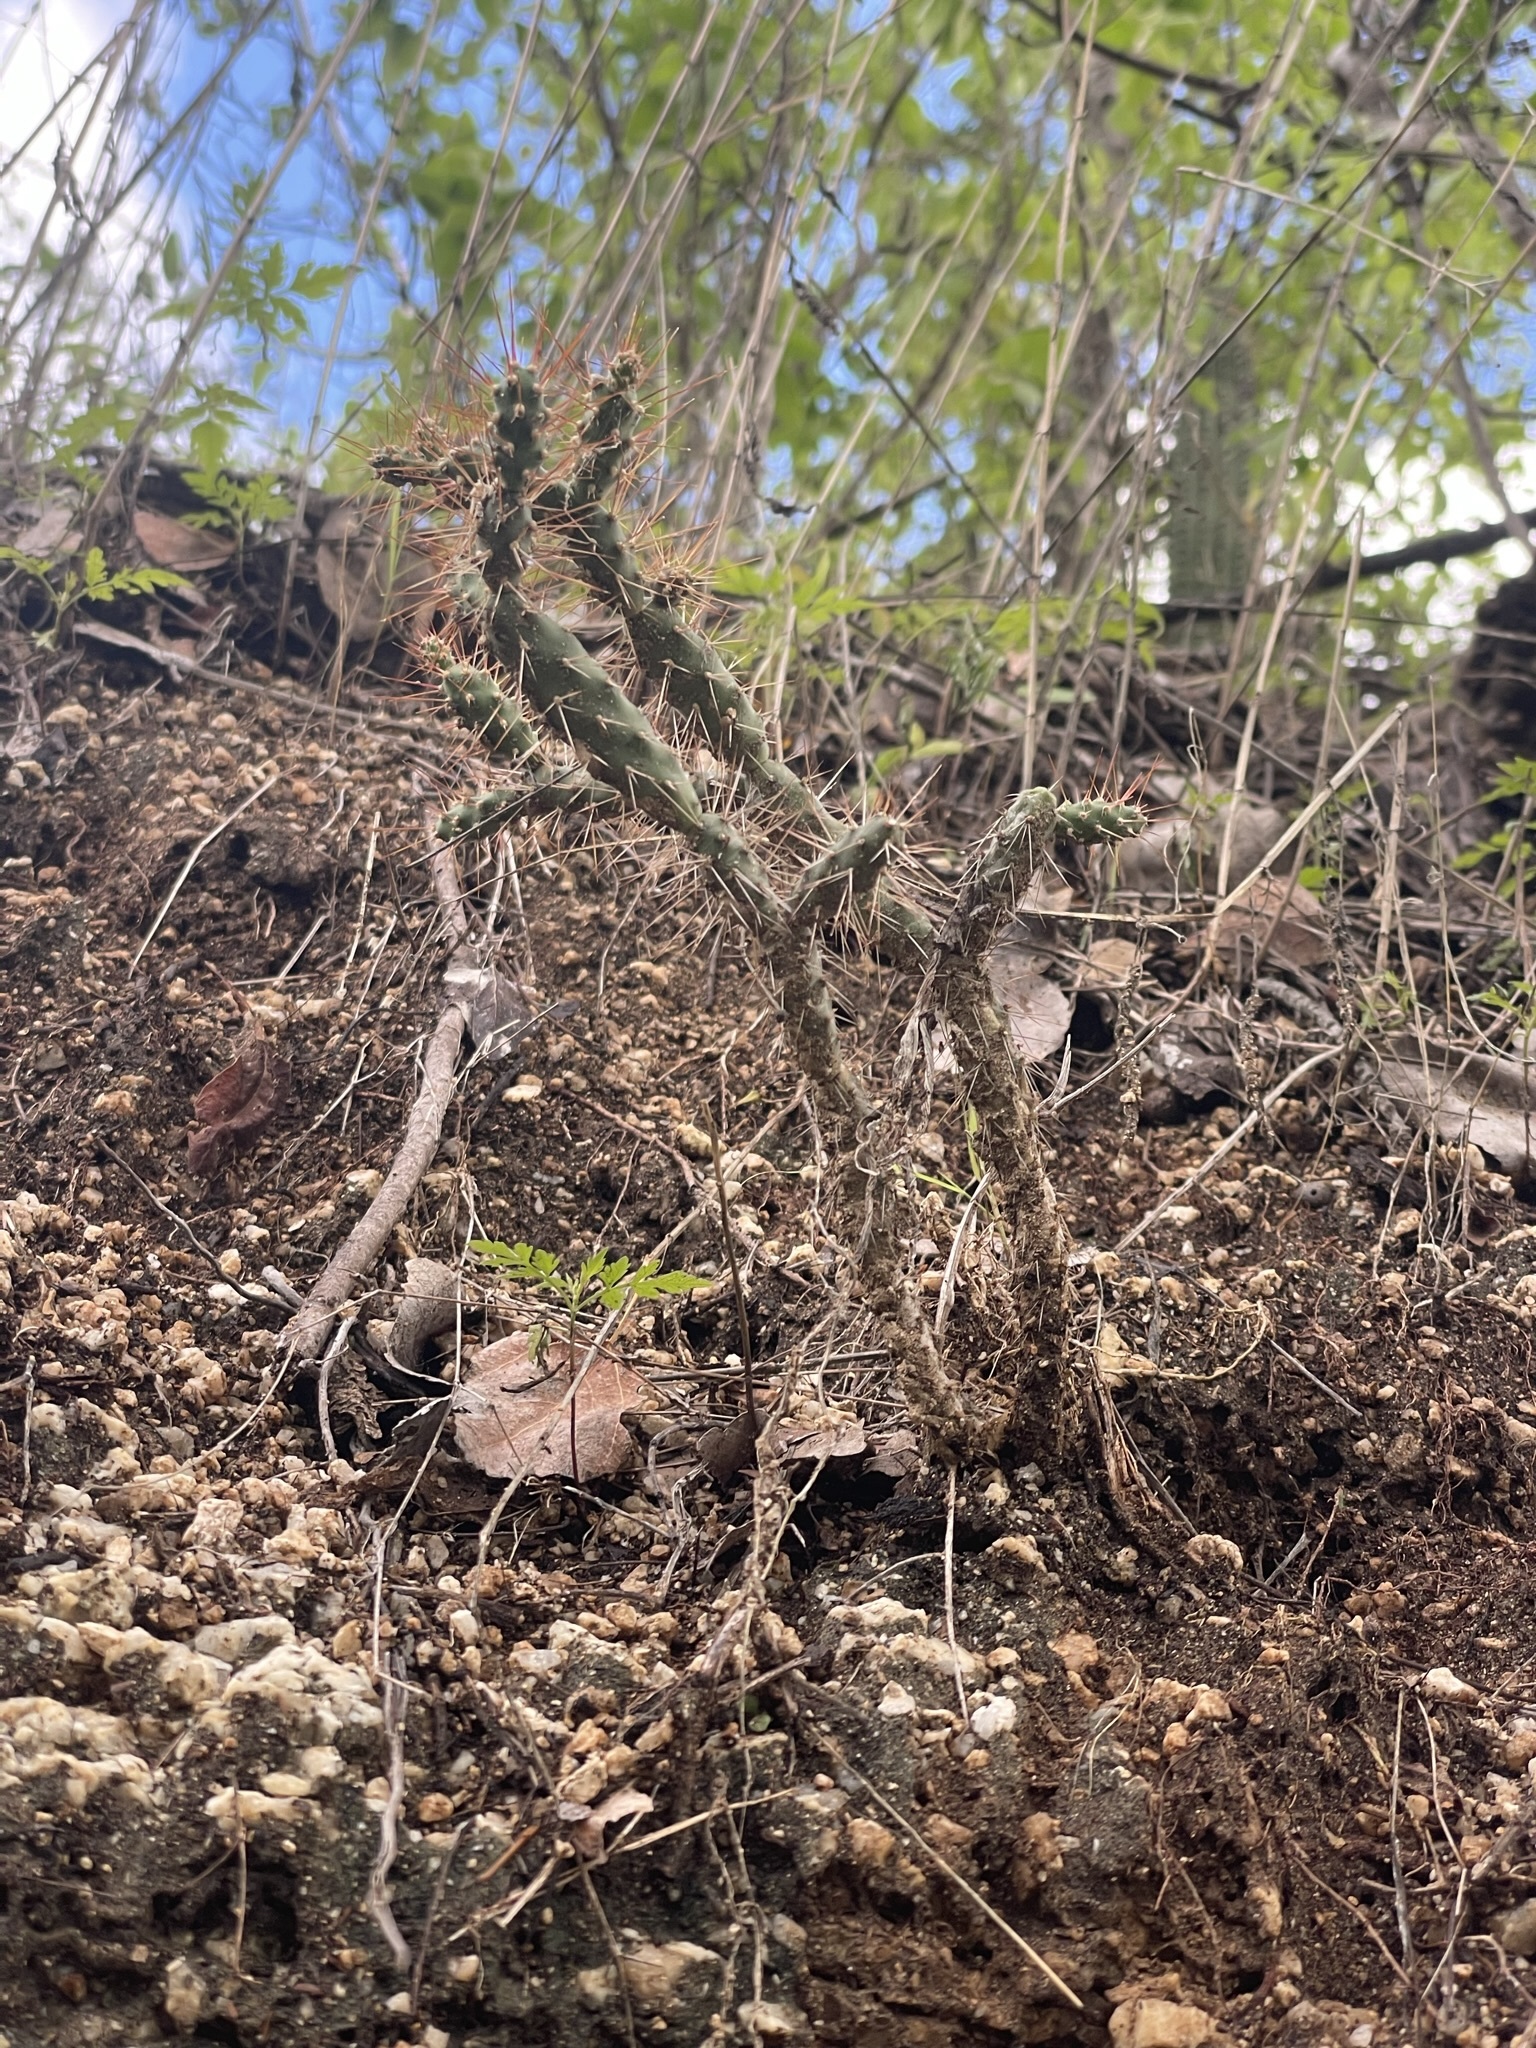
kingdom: Plantae
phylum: Tracheophyta
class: Magnoliopsida
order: Caryophyllales
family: Cactaceae
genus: Opuntia
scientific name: Opuntia pubescens
